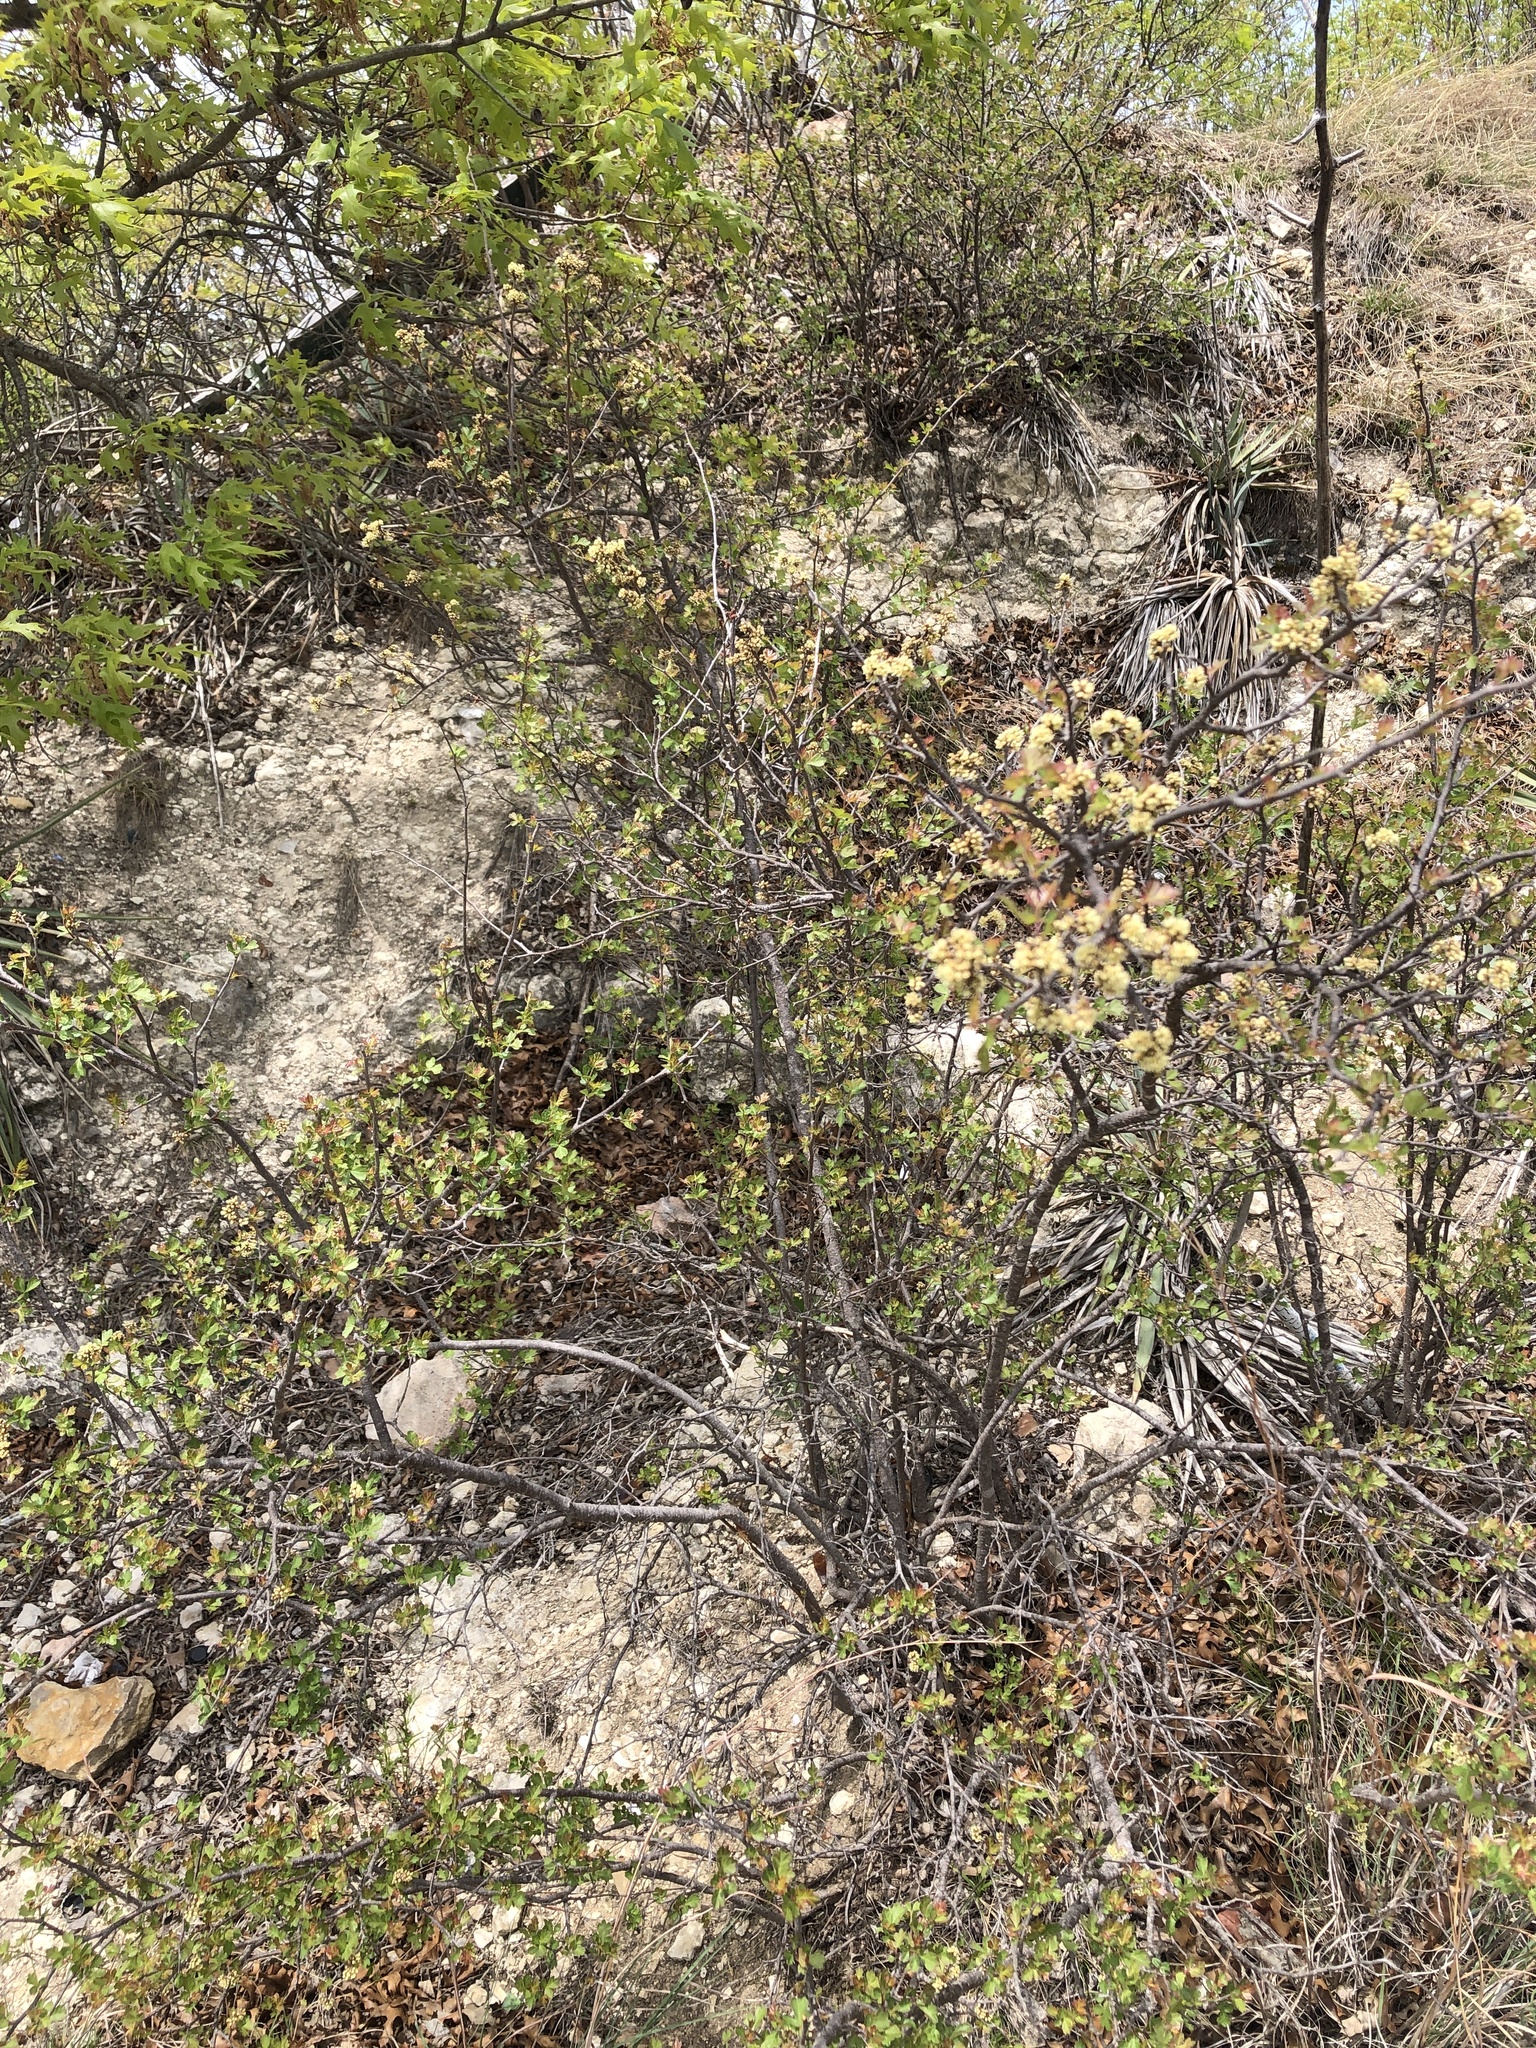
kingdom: Plantae
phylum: Tracheophyta
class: Magnoliopsida
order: Sapindales
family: Anacardiaceae
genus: Rhus
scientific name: Rhus aromatica
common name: Aromatic sumac
